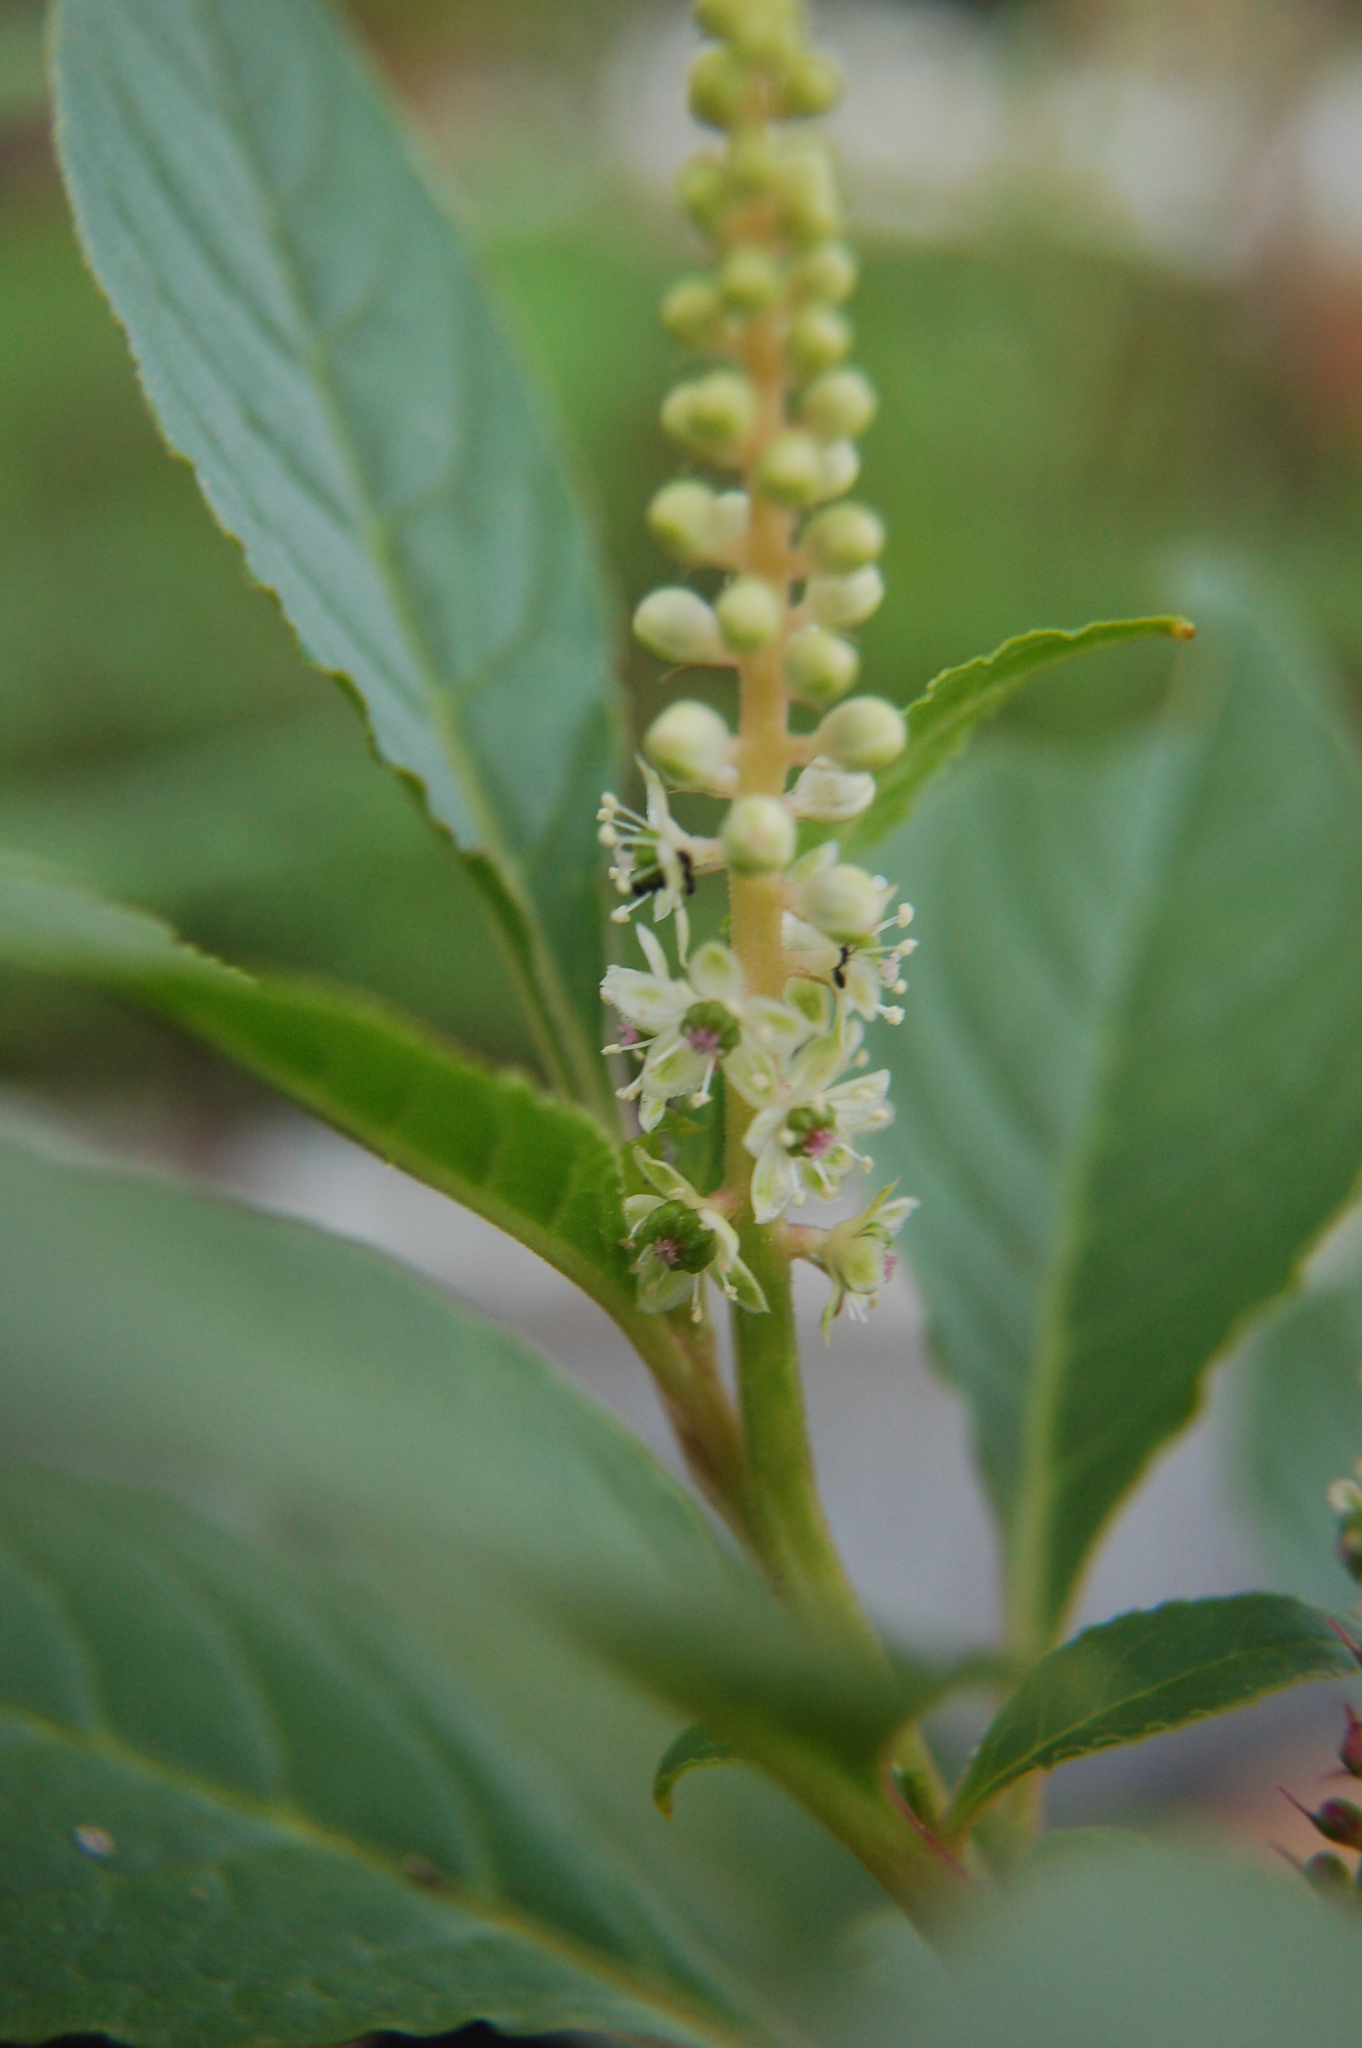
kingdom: Plantae
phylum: Tracheophyta
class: Magnoliopsida
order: Caryophyllales
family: Phytolaccaceae
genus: Phytolacca
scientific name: Phytolacca icosandra
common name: Button pokeweed
